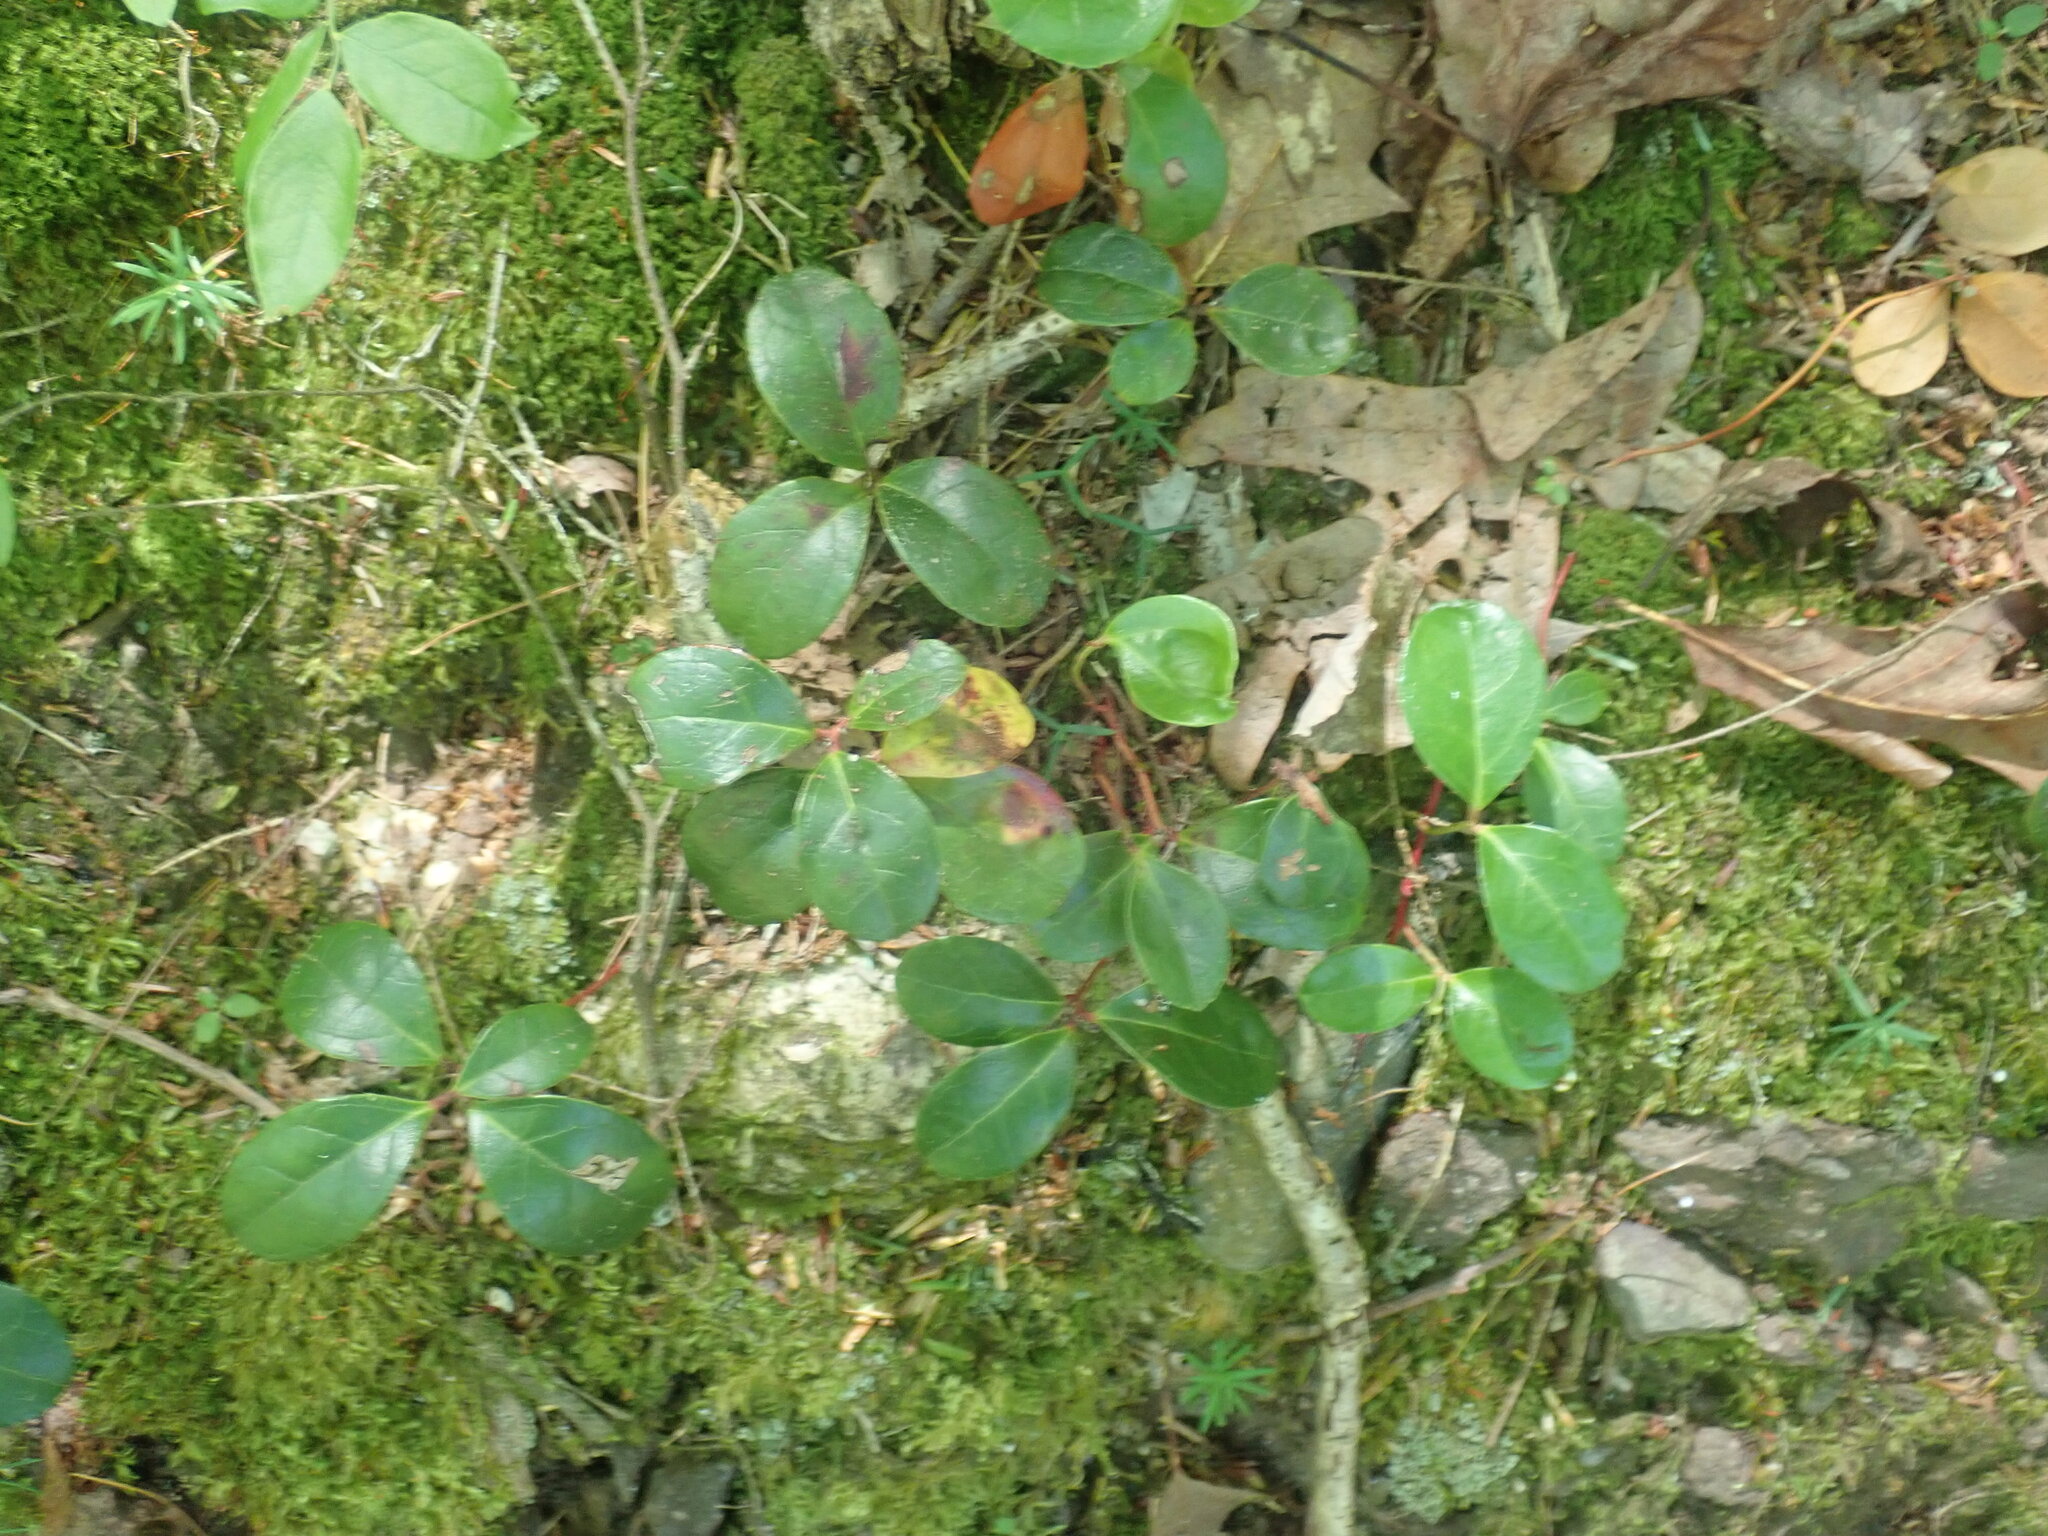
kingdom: Plantae
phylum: Tracheophyta
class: Magnoliopsida
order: Ericales
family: Ericaceae
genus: Gaultheria
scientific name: Gaultheria procumbens
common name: Checkerberry
